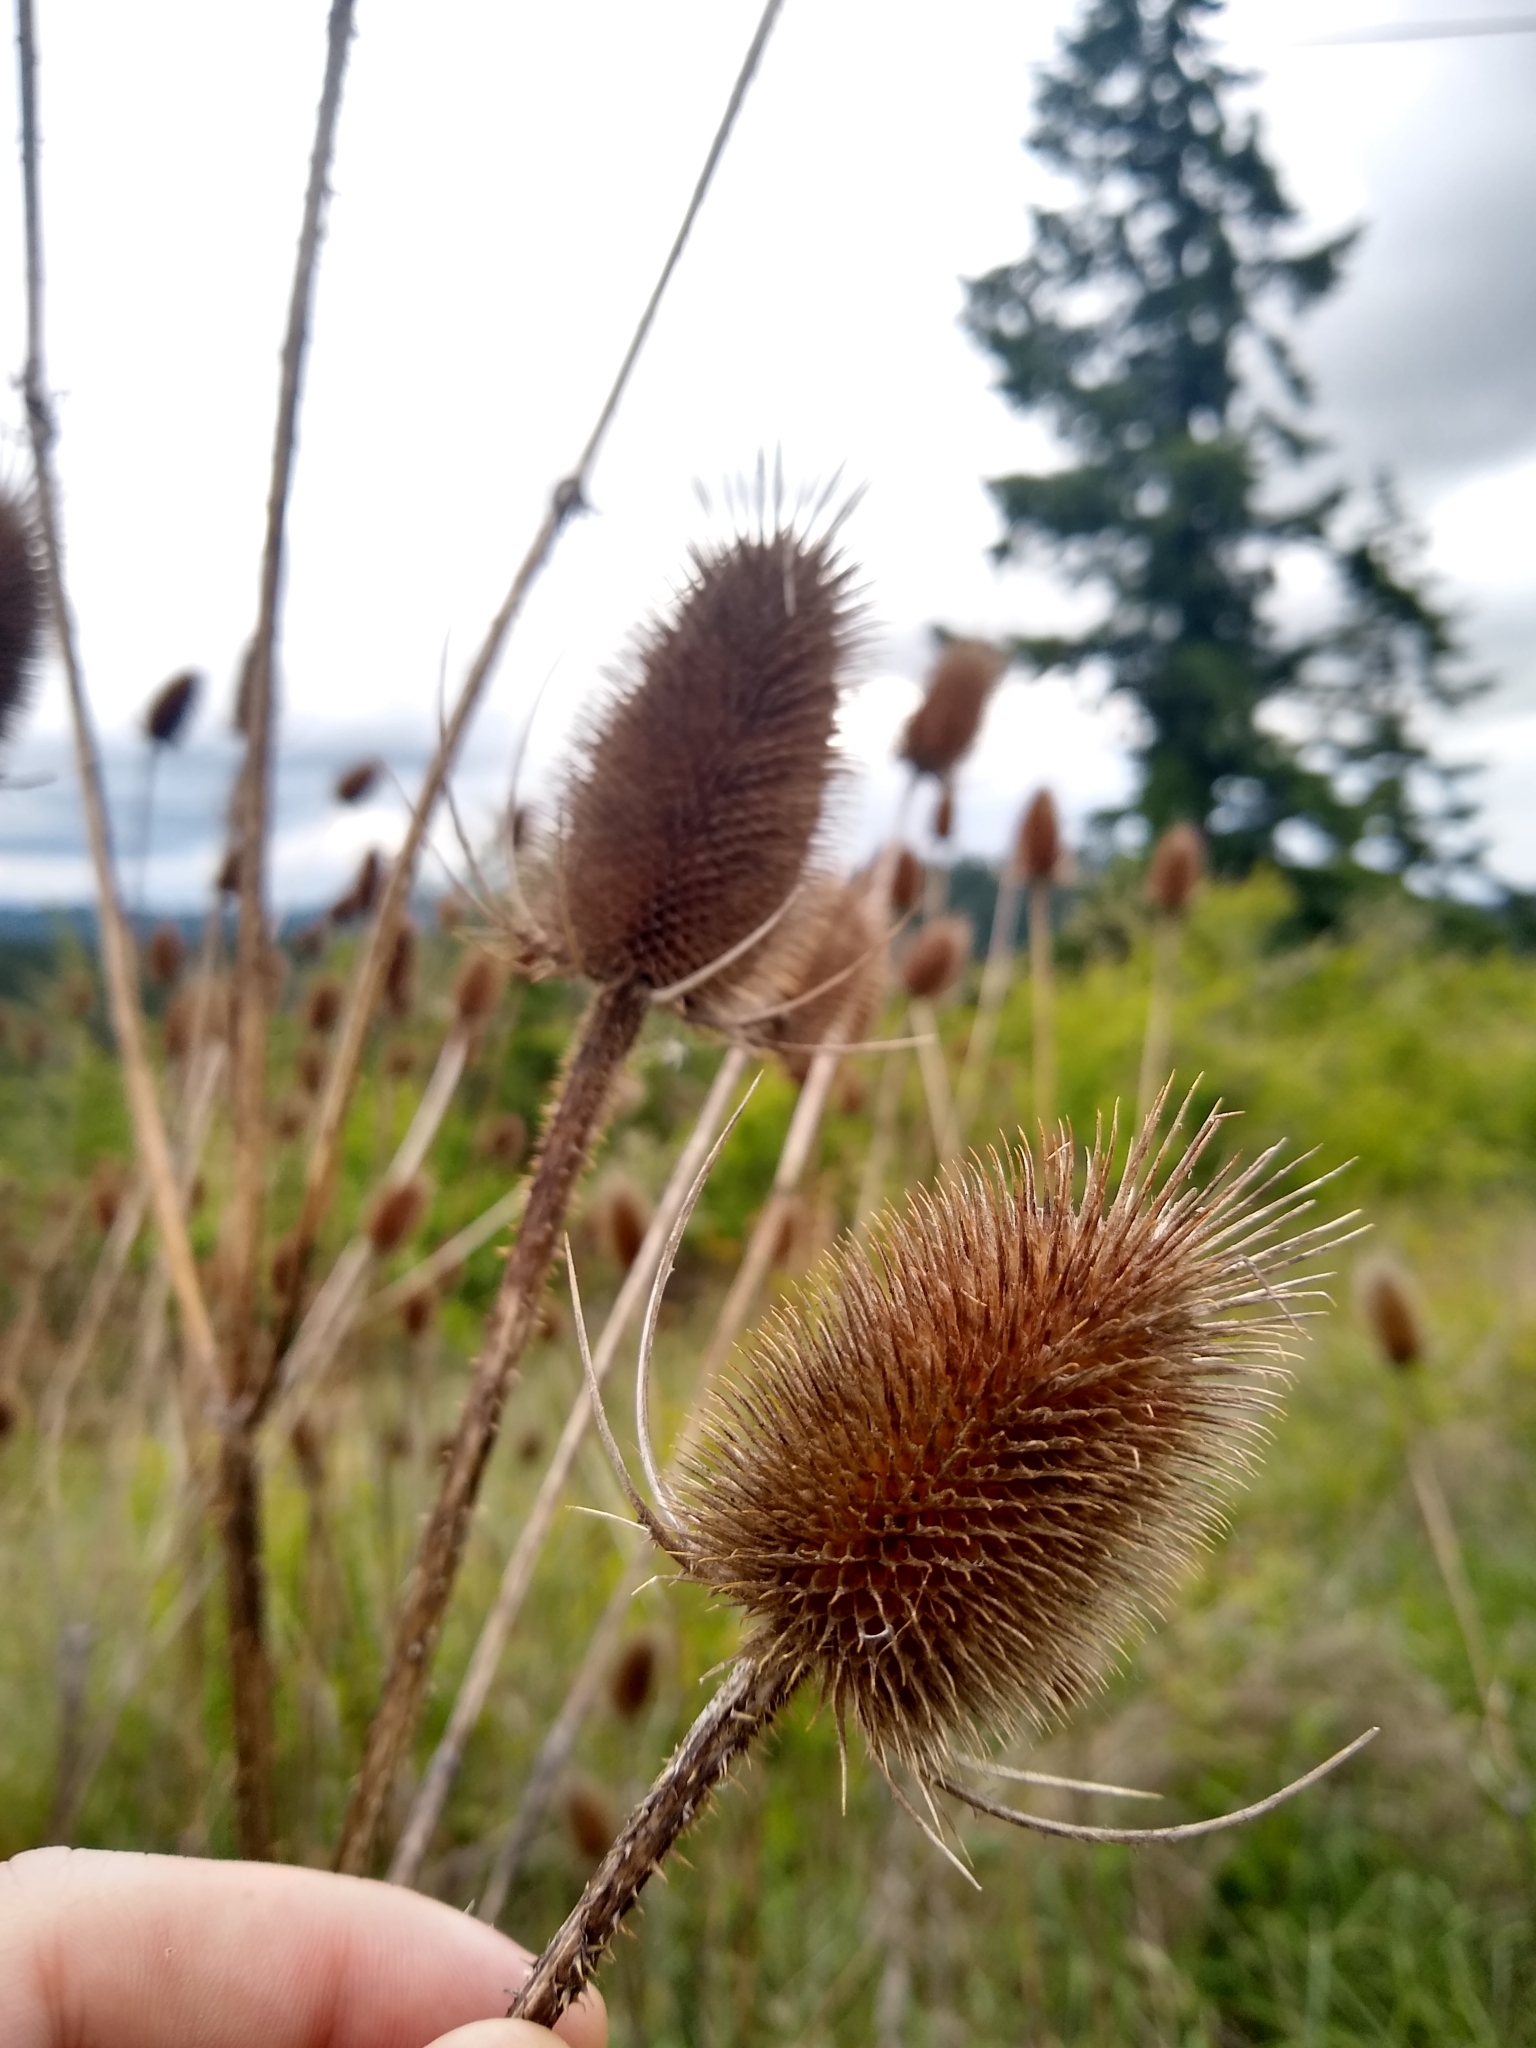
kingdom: Plantae
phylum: Tracheophyta
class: Magnoliopsida
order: Dipsacales
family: Caprifoliaceae
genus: Dipsacus
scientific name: Dipsacus fullonum
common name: Teasel
